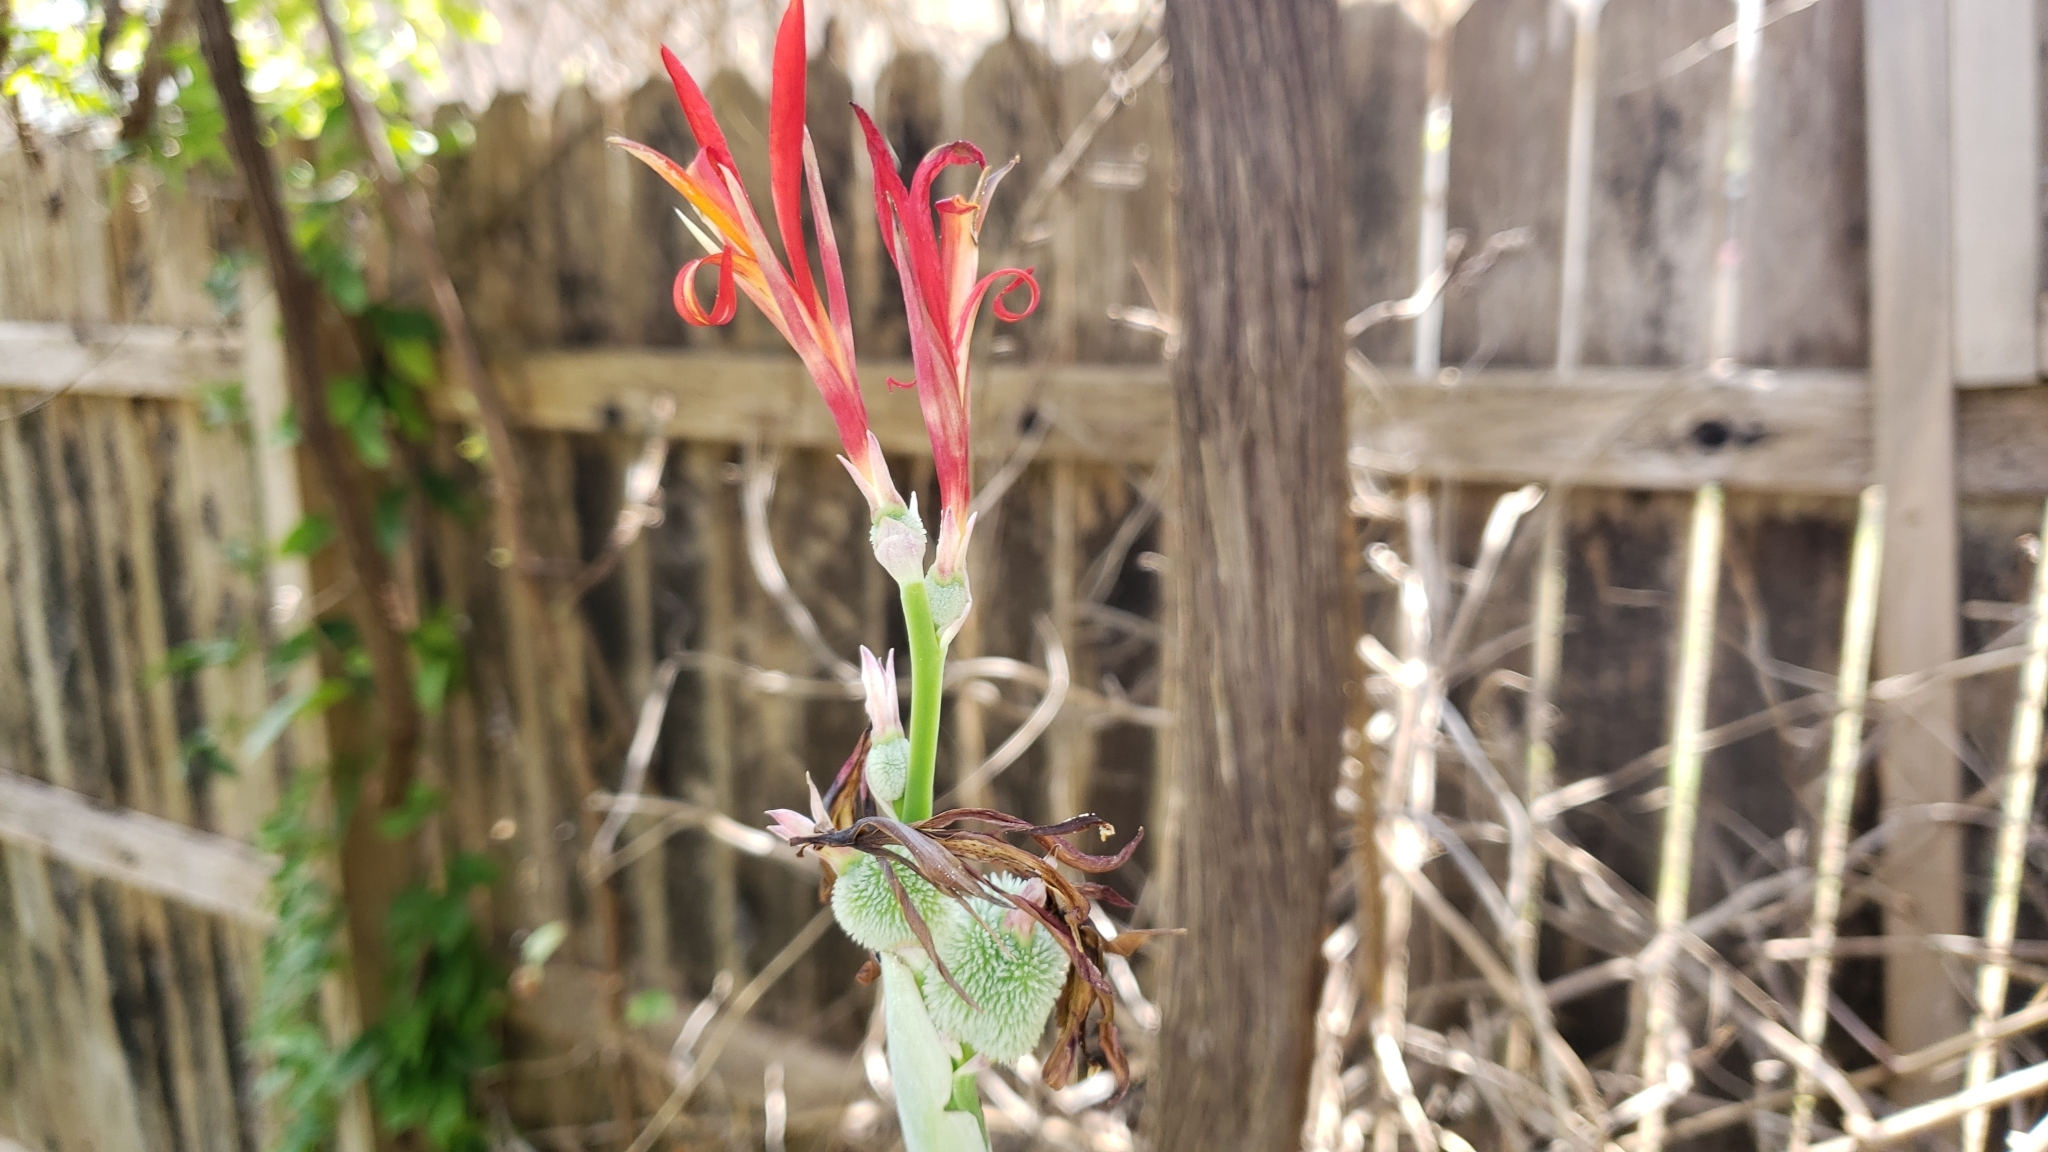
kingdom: Plantae
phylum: Tracheophyta
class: Liliopsida
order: Zingiberales
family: Cannaceae
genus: Canna
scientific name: Canna indica
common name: Indian shot
